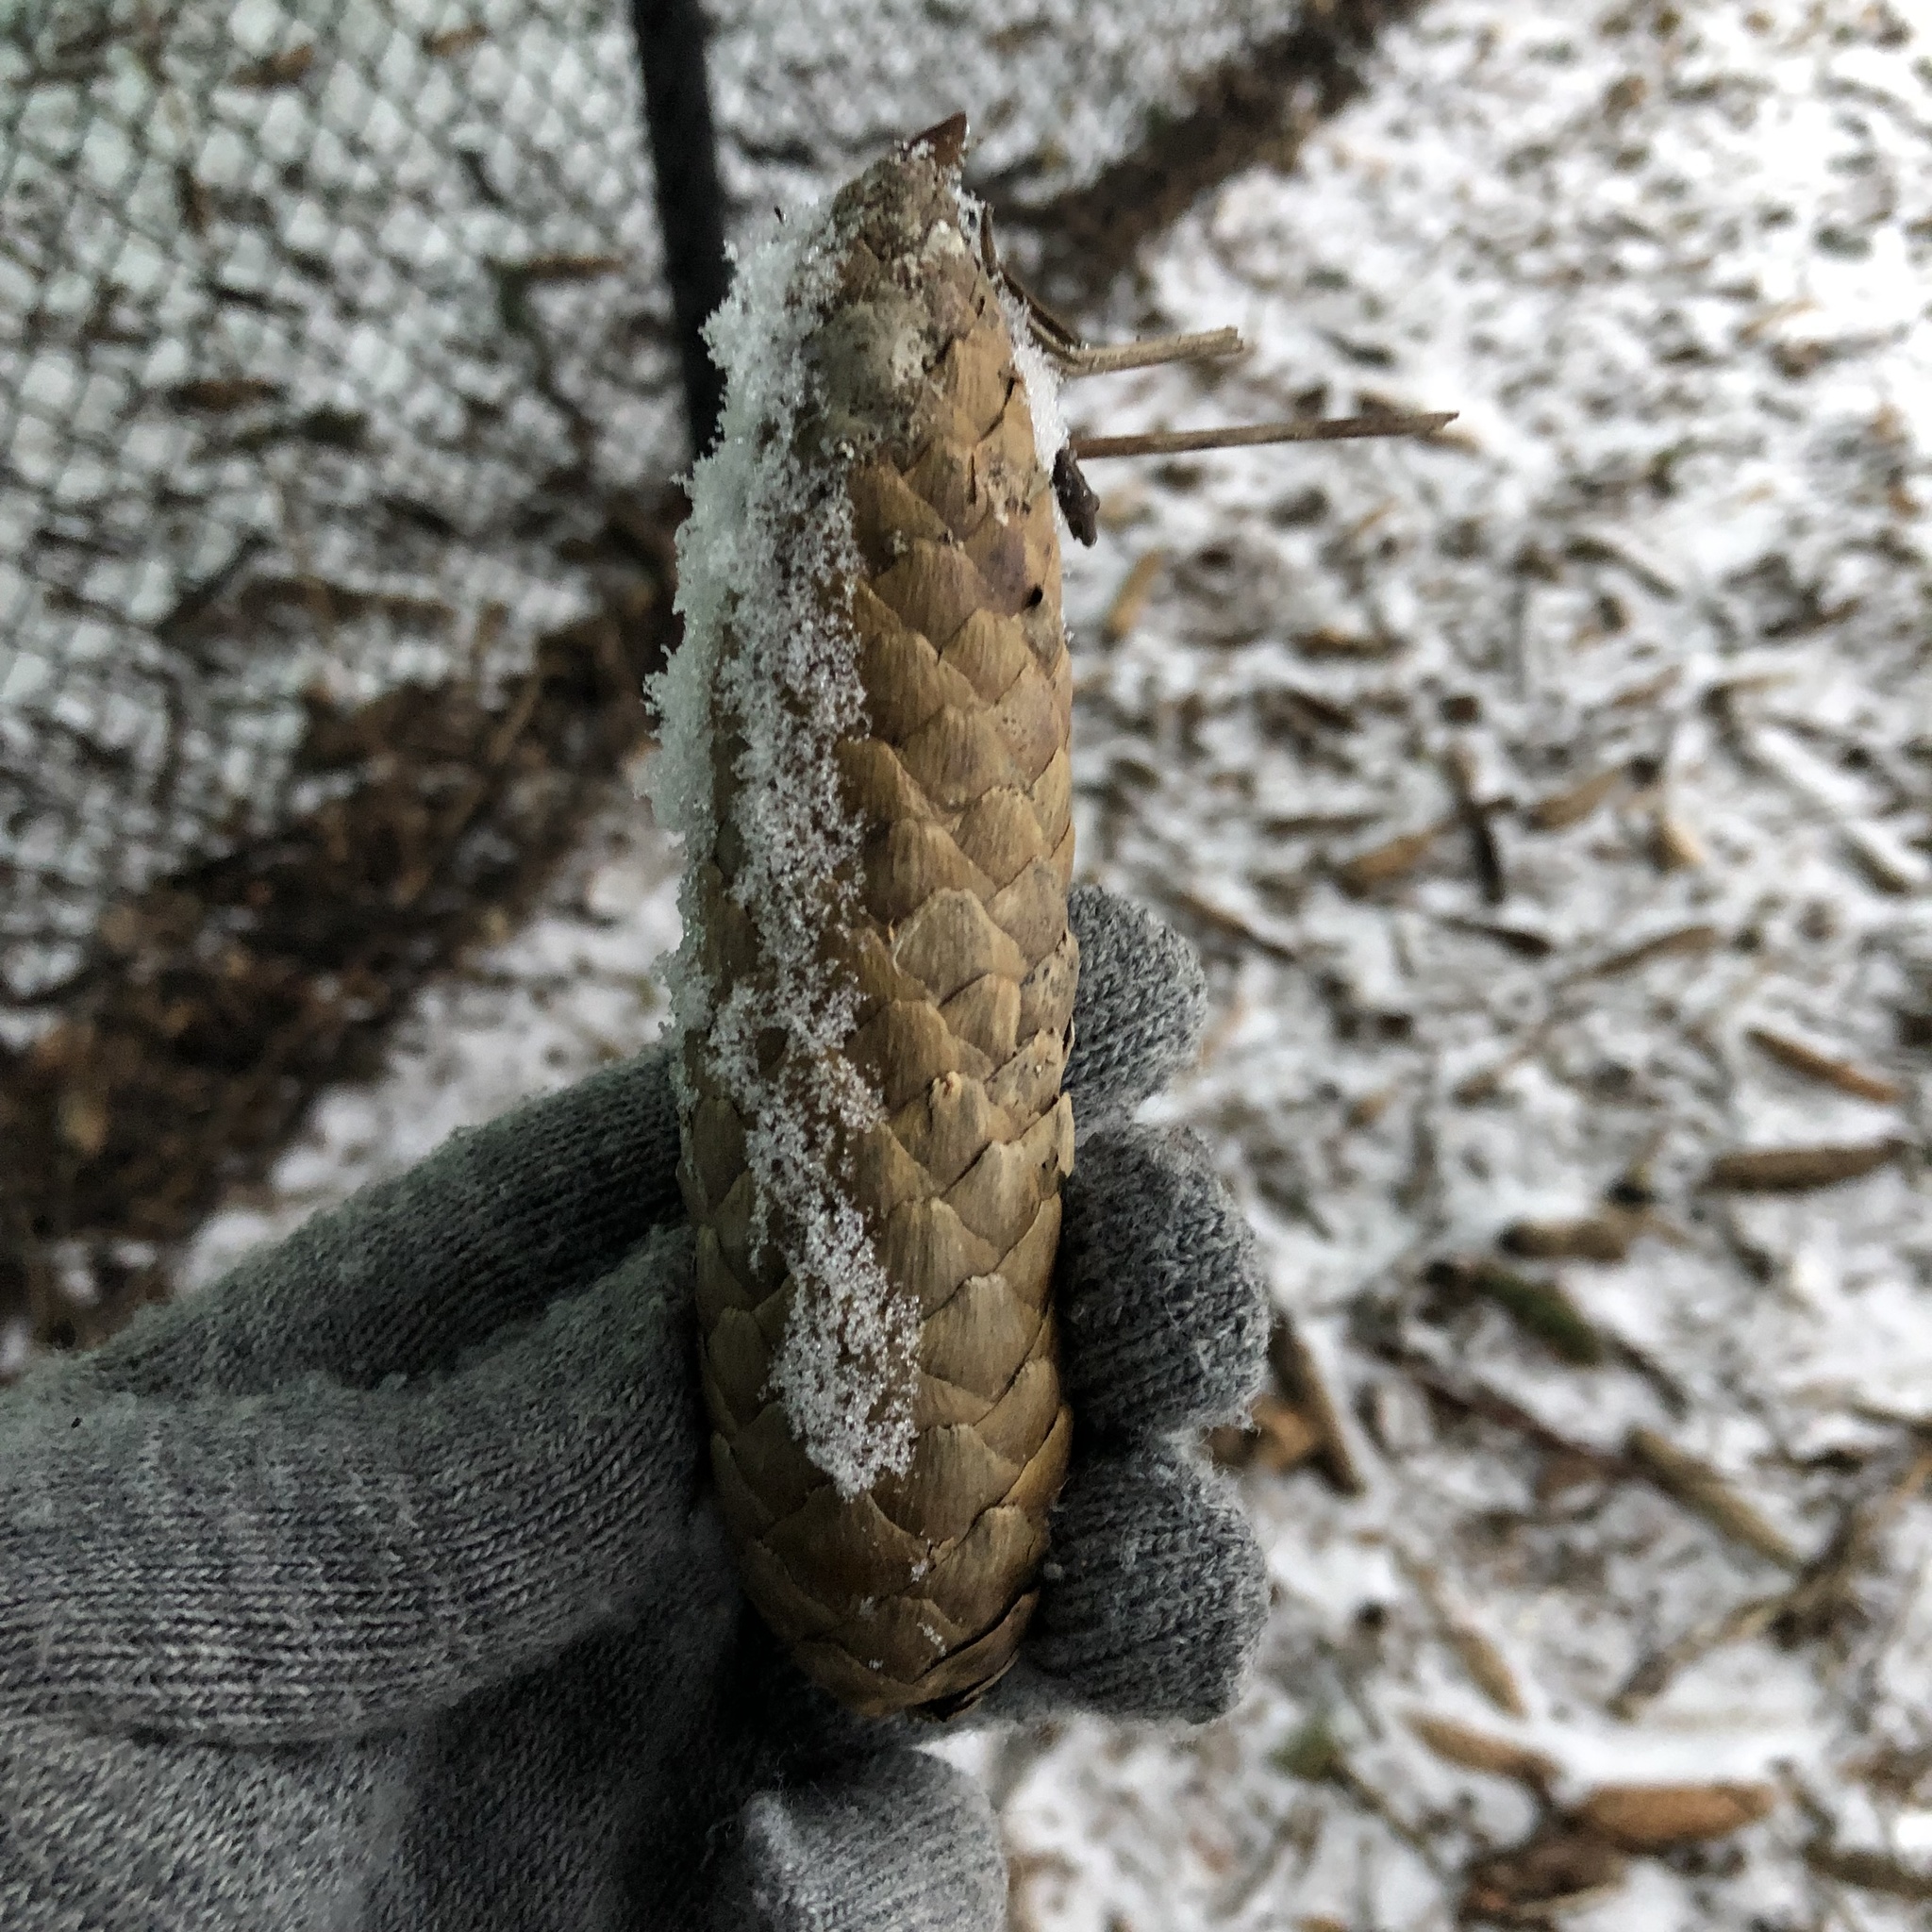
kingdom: Plantae
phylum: Tracheophyta
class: Pinopsida
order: Pinales
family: Pinaceae
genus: Picea
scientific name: Picea abies
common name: Norway spruce
